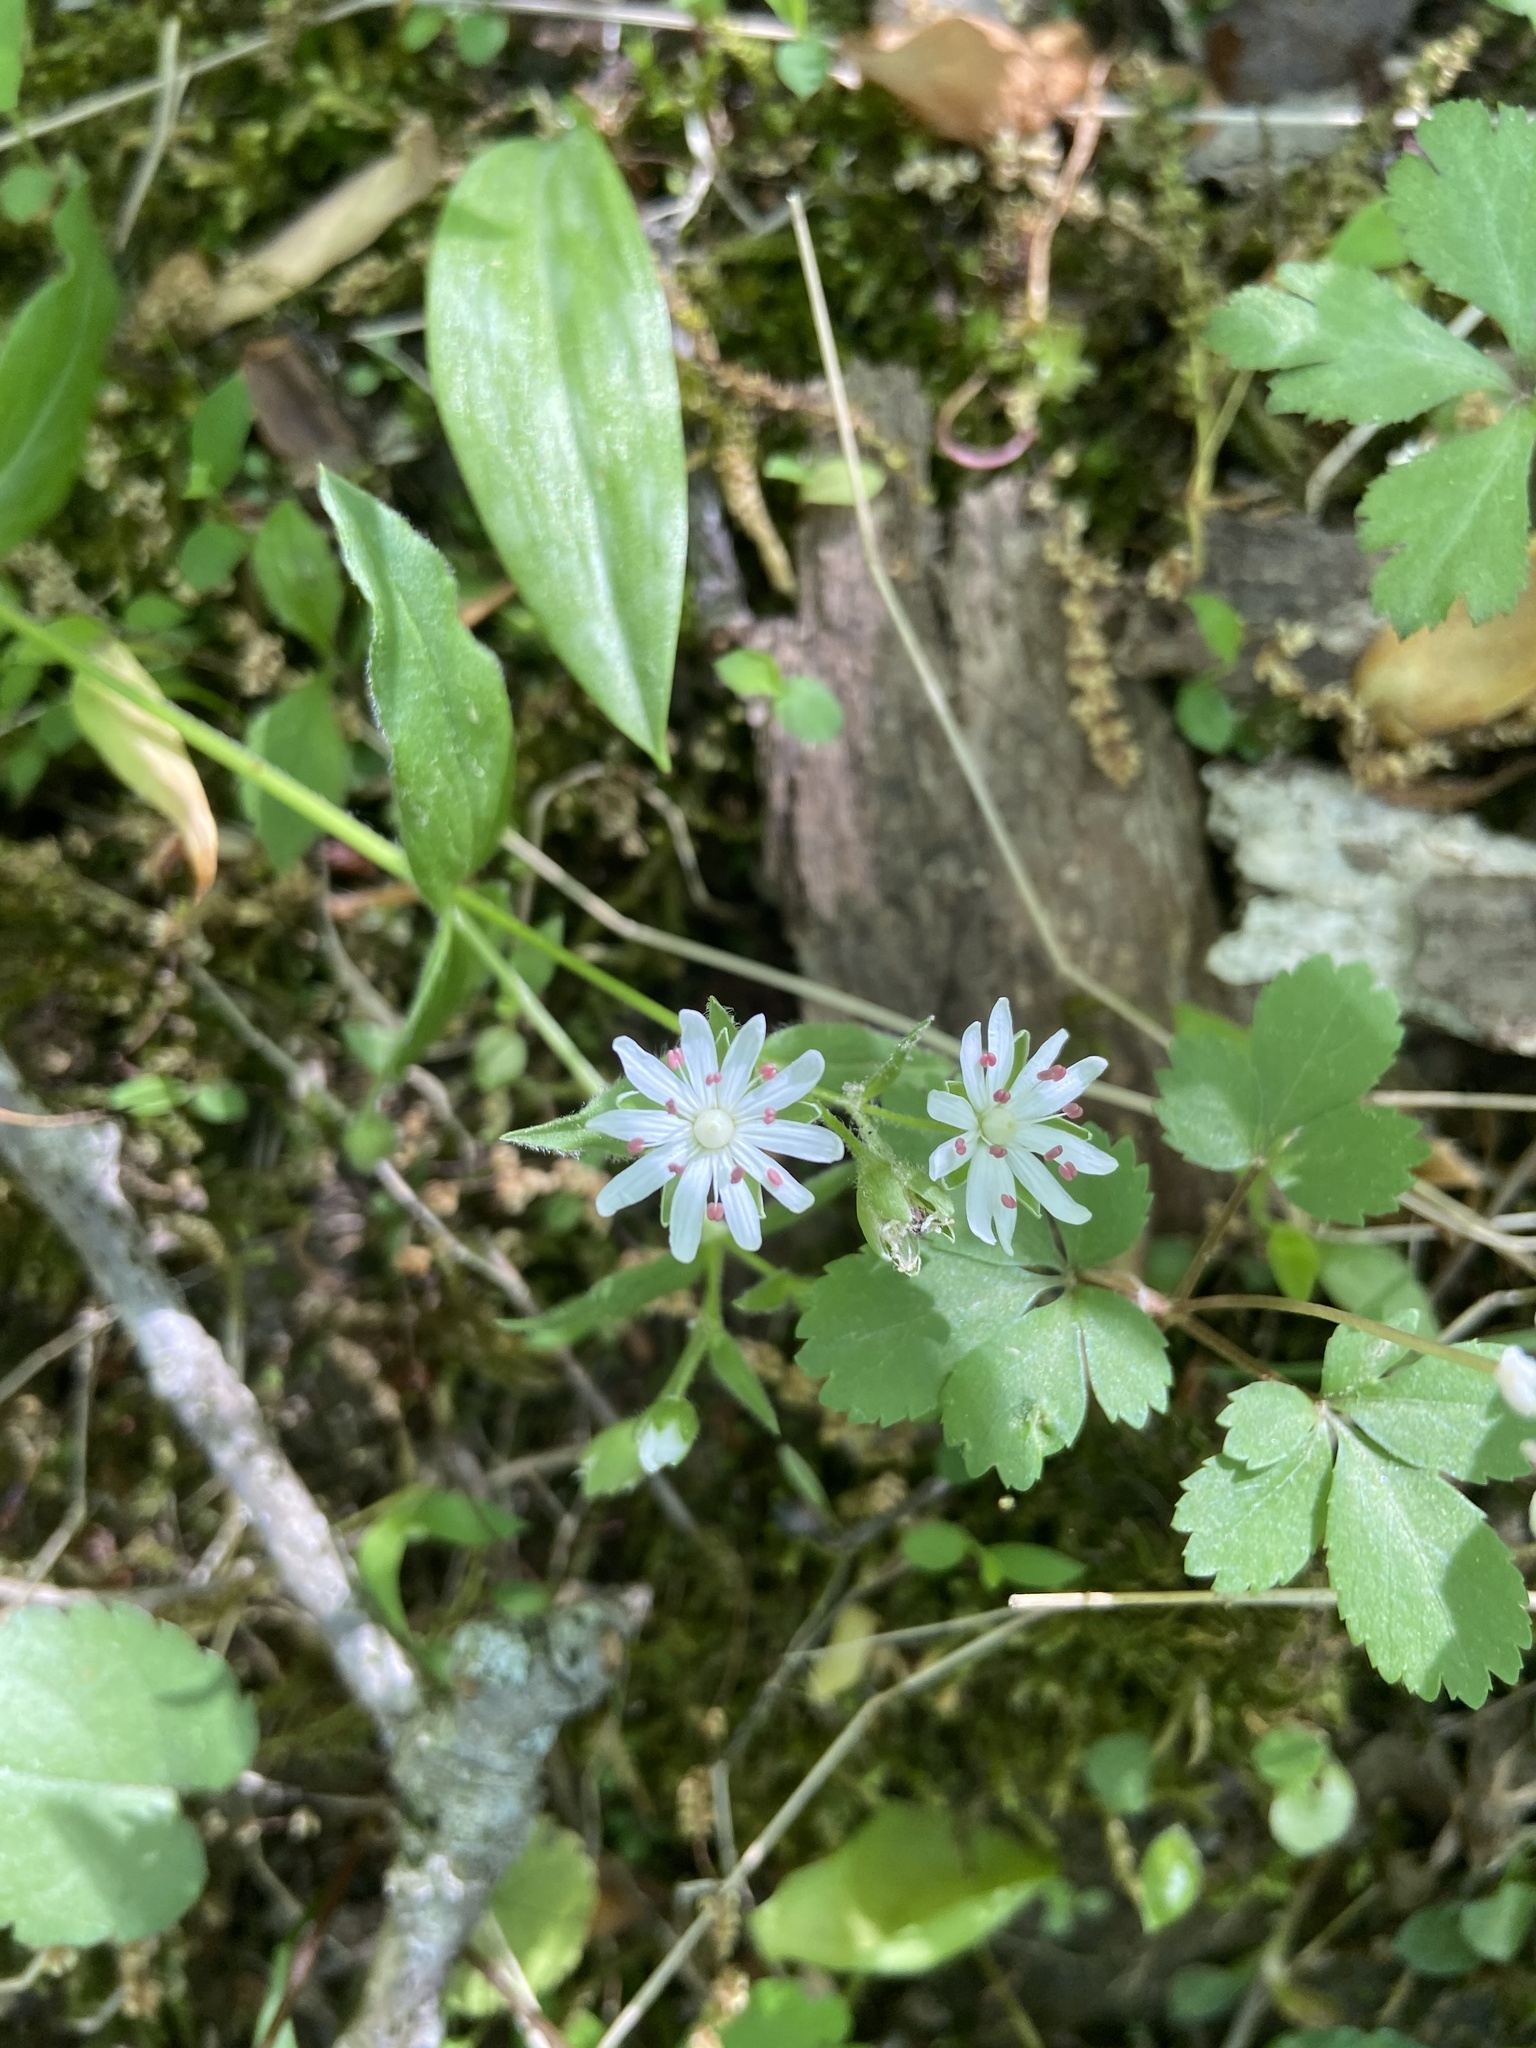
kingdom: Plantae
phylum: Tracheophyta
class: Magnoliopsida
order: Caryophyllales
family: Caryophyllaceae
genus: Stellaria
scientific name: Stellaria pubera
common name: Star chickweed
